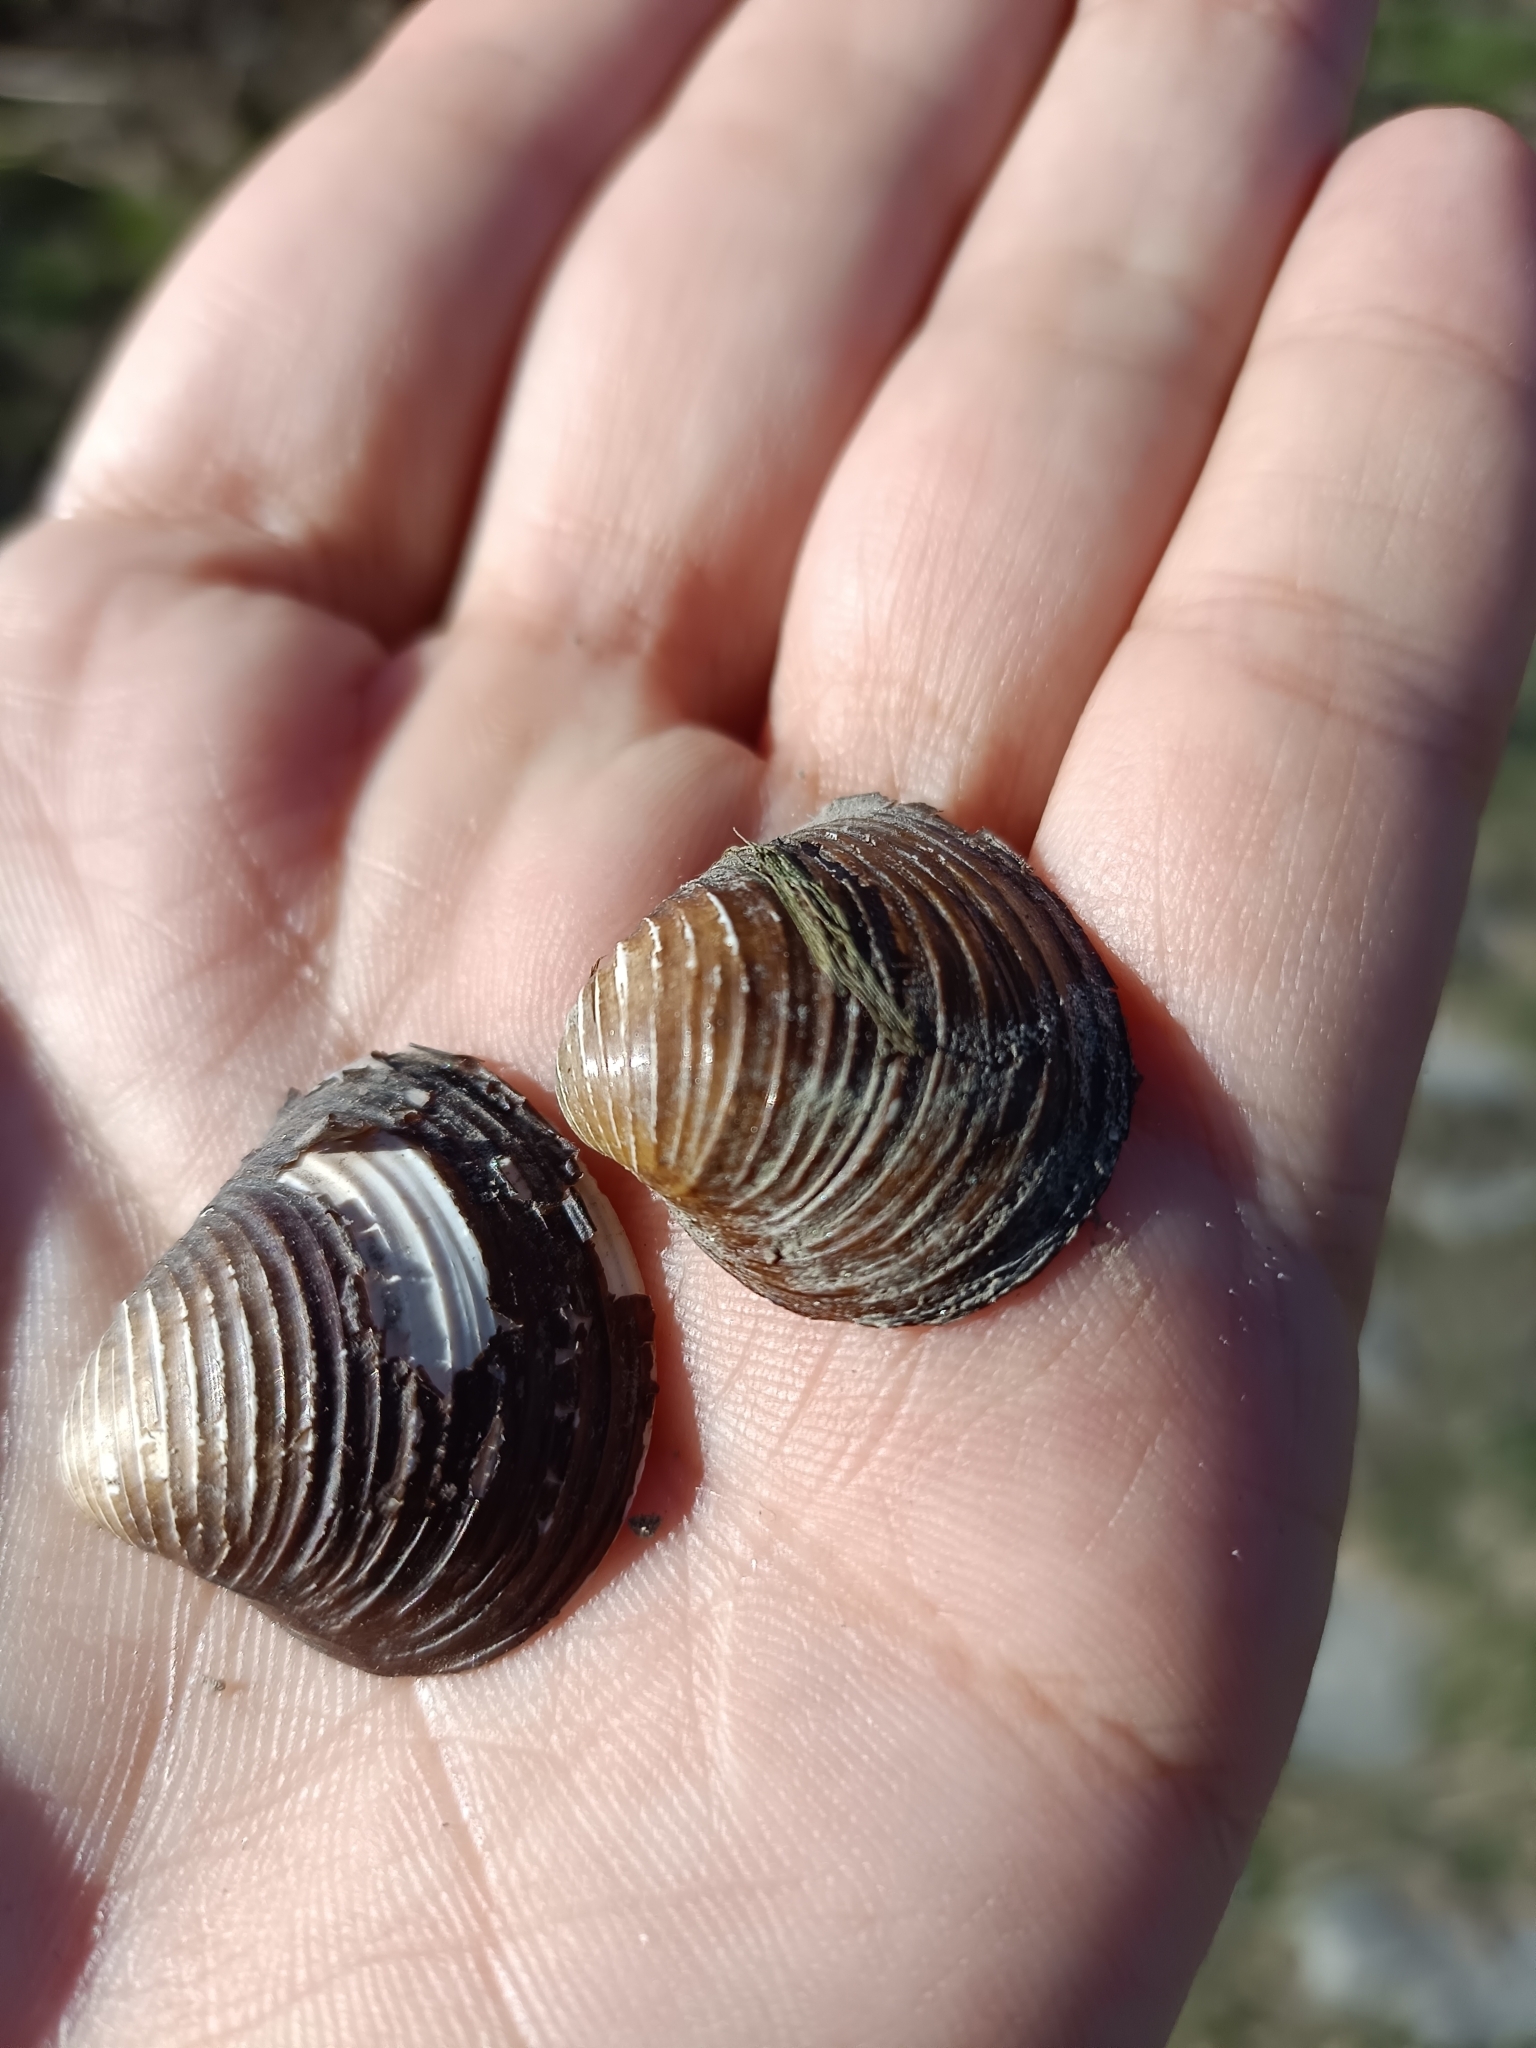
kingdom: Animalia
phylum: Mollusca
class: Bivalvia
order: Venerida
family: Cyrenidae
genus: Corbicula
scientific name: Corbicula fluminea
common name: Asian clam
